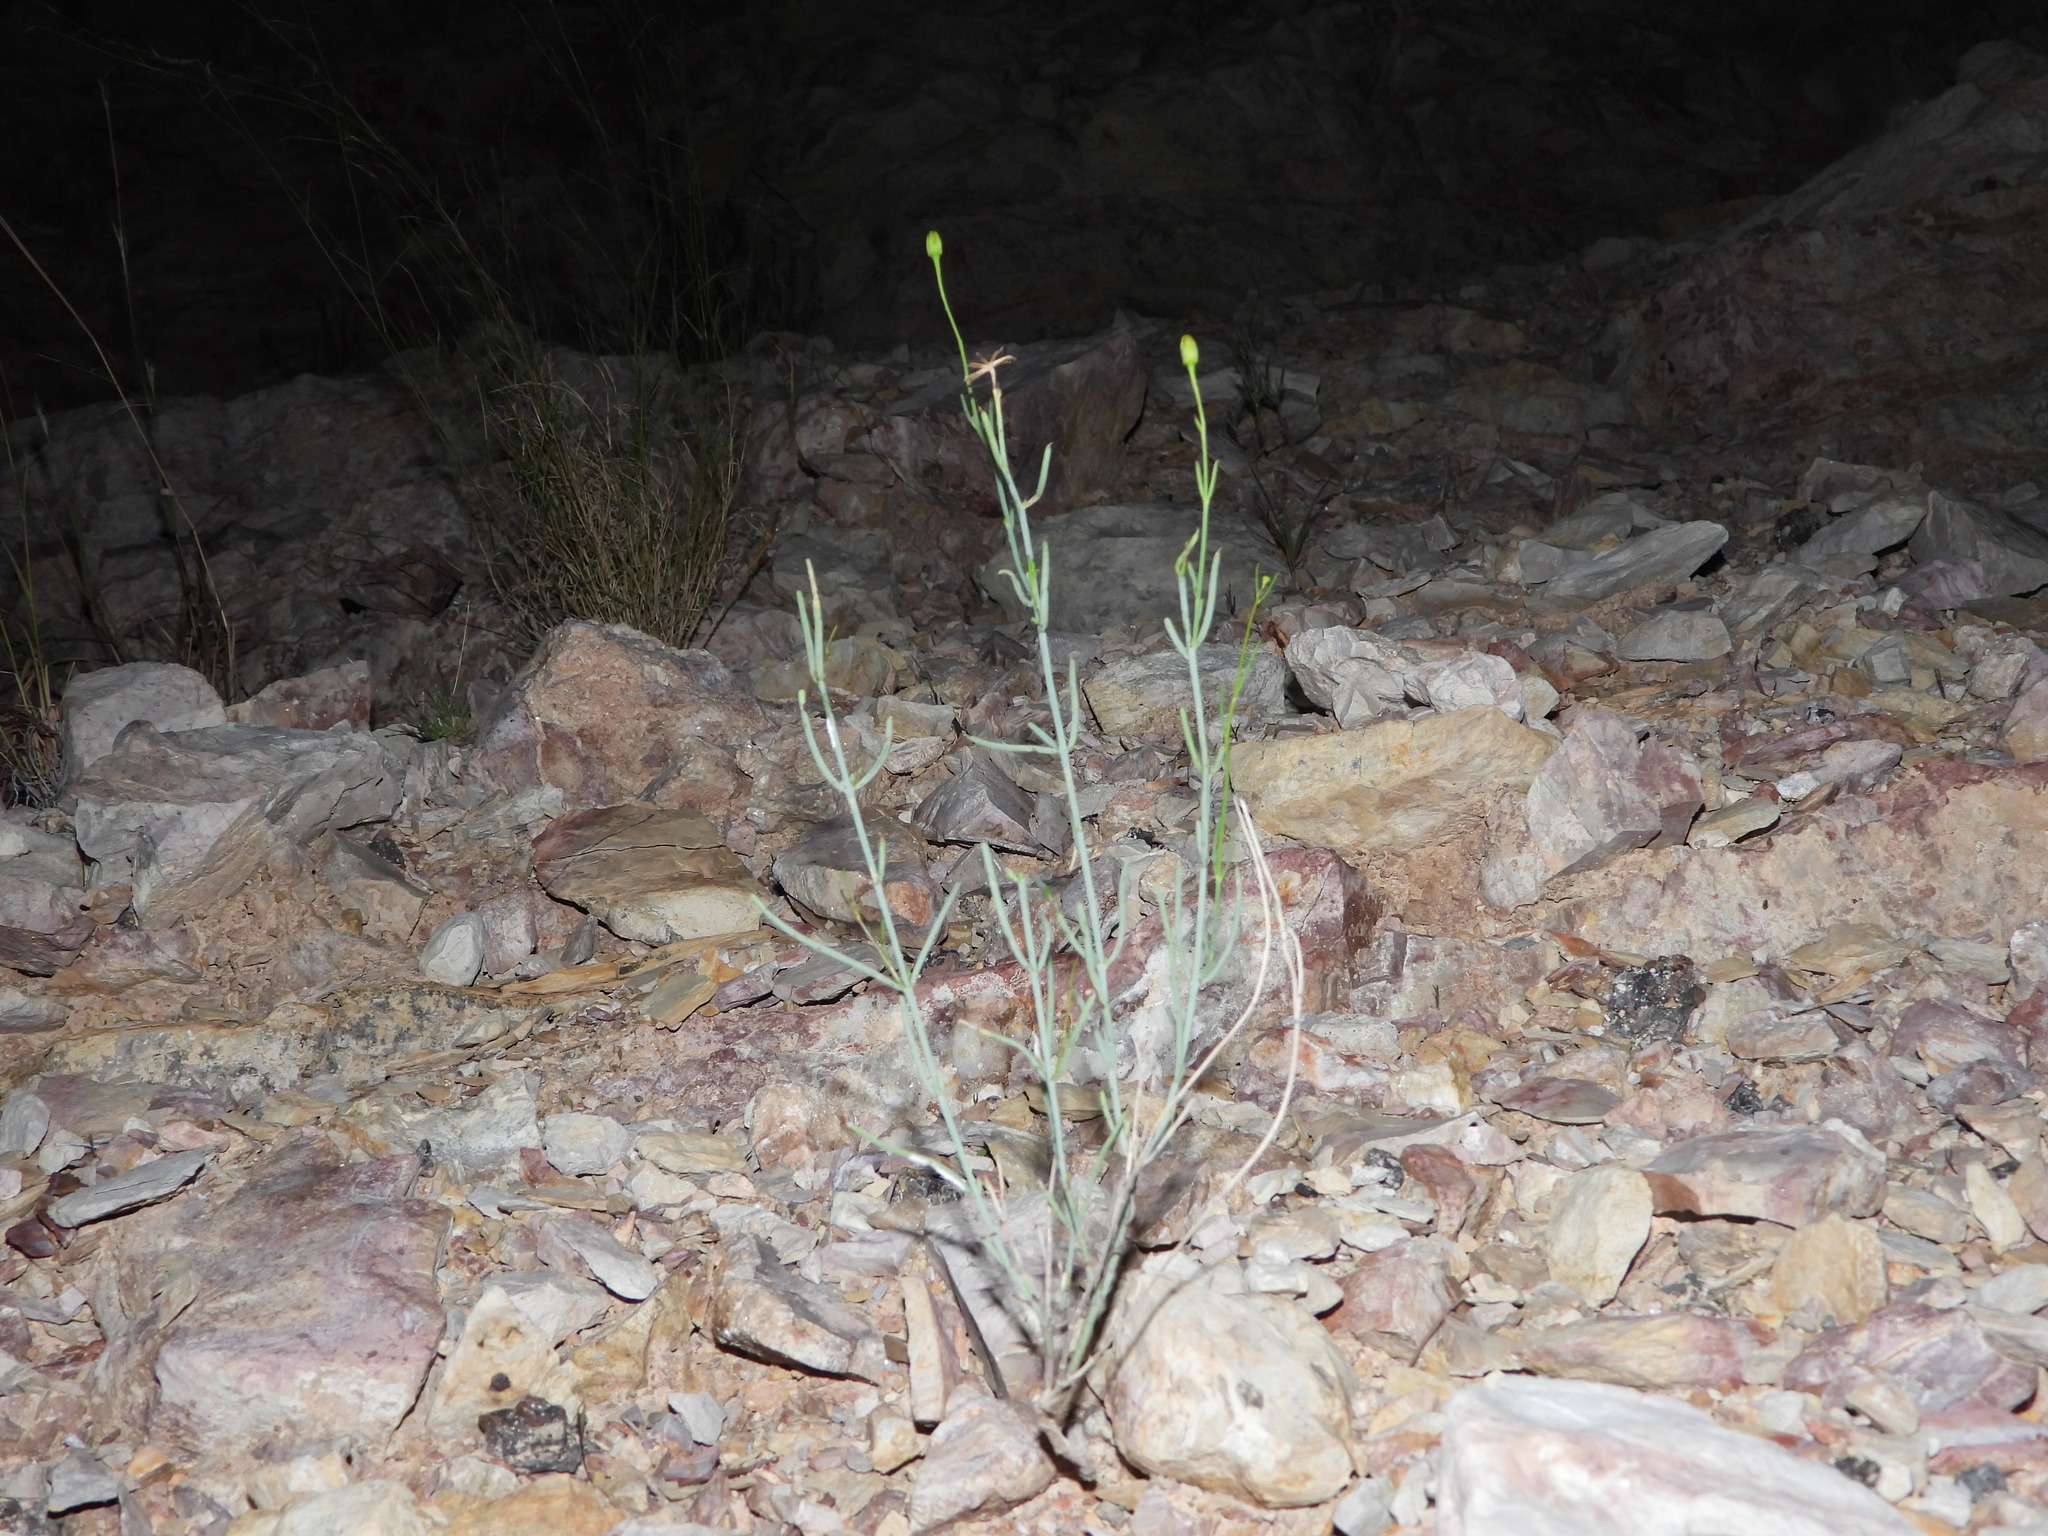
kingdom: Plantae
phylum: Tracheophyta
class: Magnoliopsida
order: Asterales
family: Asteraceae
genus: Porophyllum
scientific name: Porophyllum scoparium
